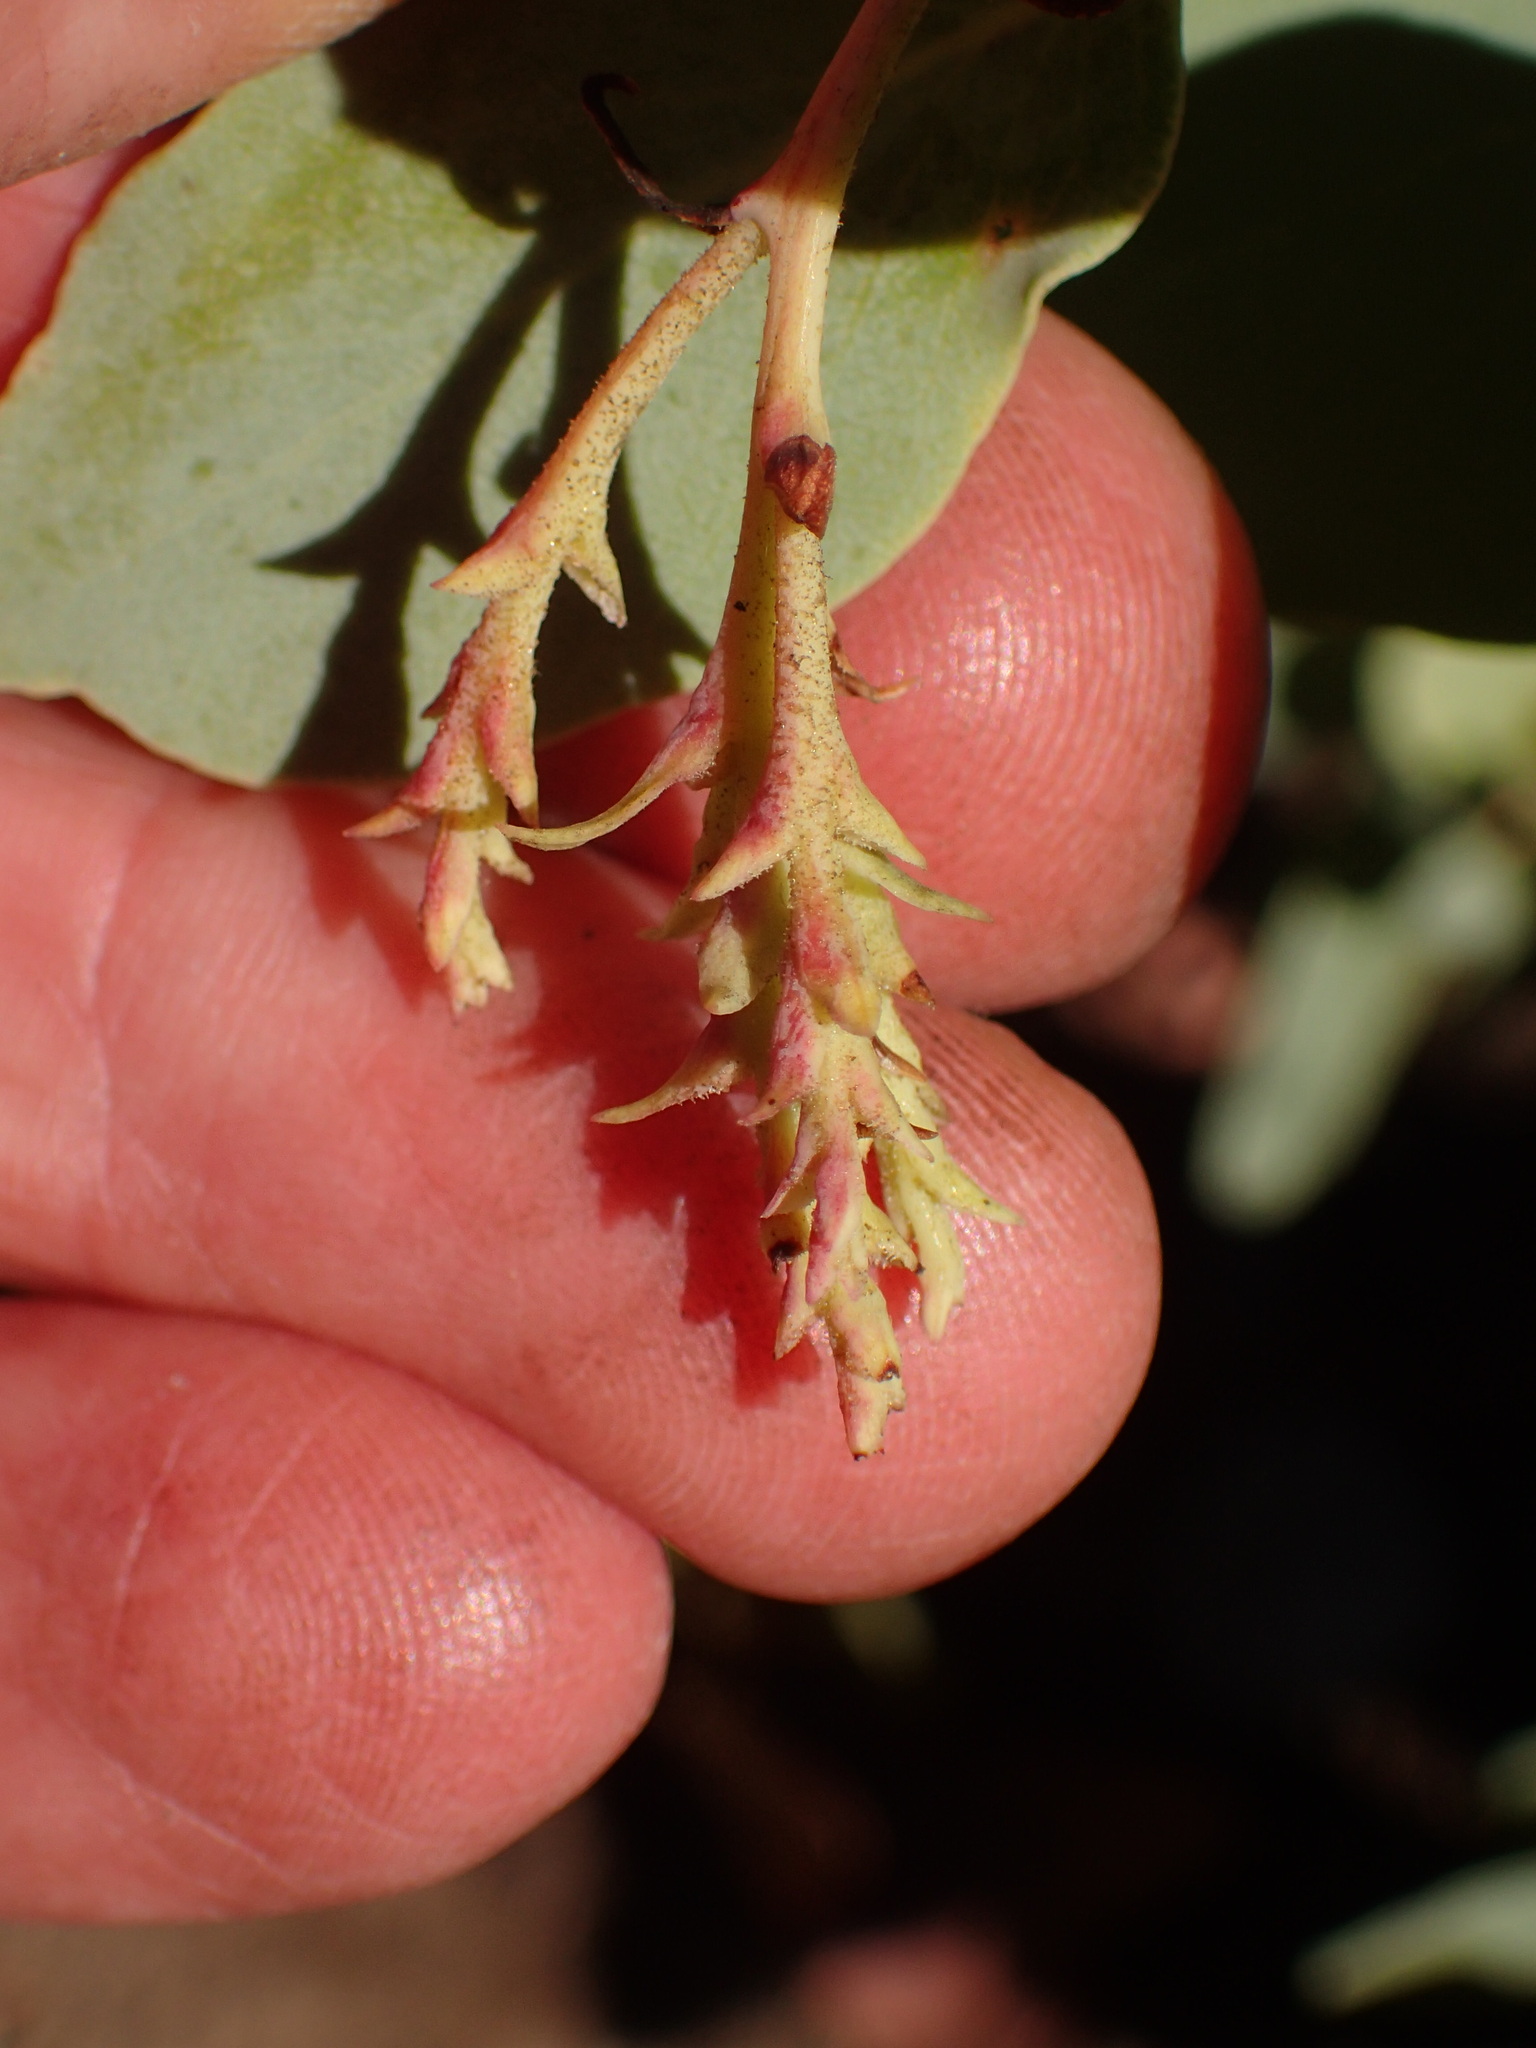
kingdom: Plantae
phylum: Tracheophyta
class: Magnoliopsida
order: Ericales
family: Ericaceae
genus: Arctostaphylos
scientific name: Arctostaphylos glauca
